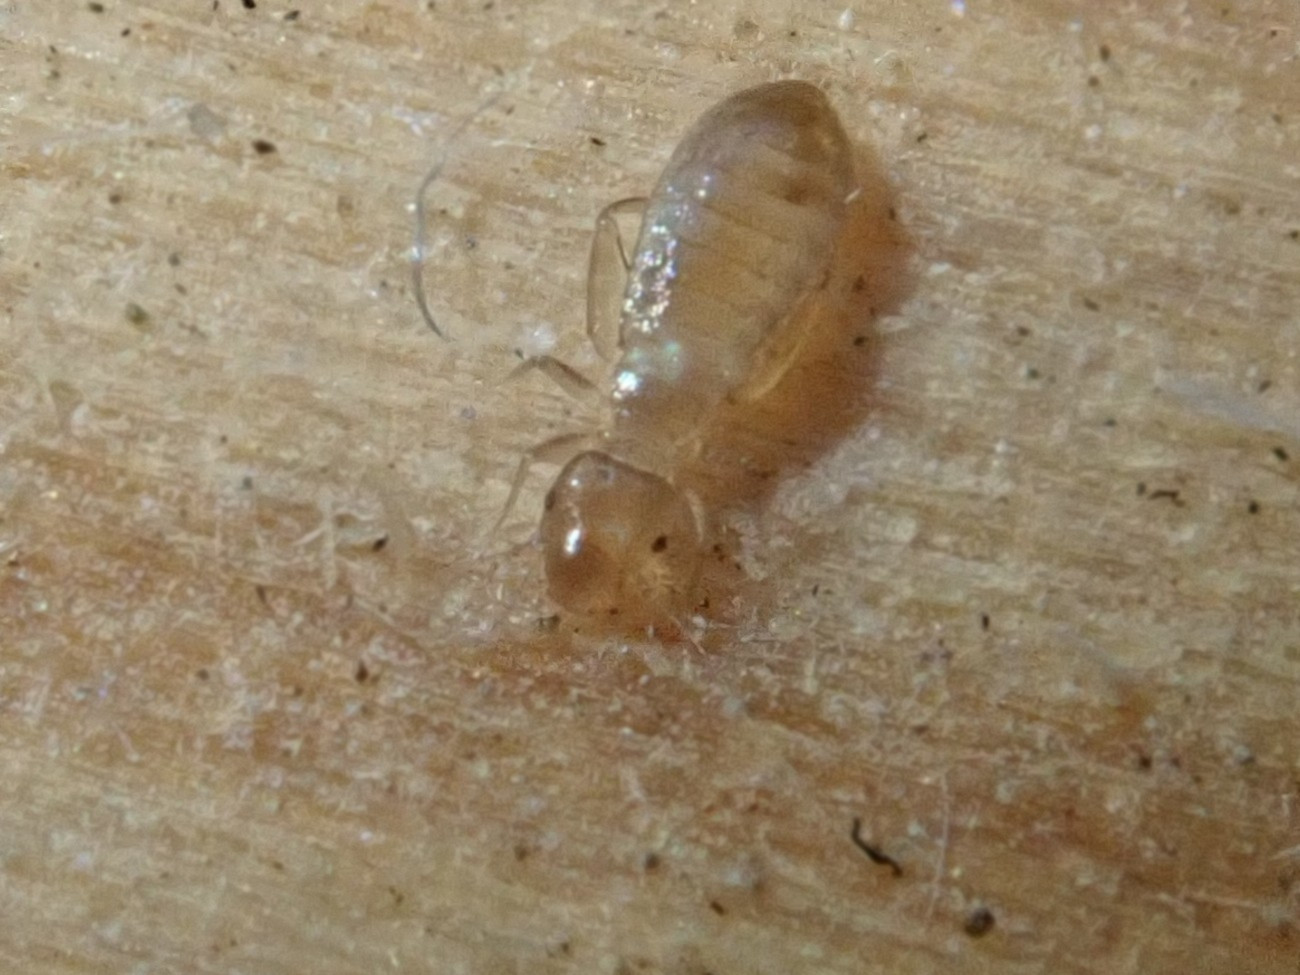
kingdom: Animalia
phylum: Arthropoda
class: Insecta
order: Psocodea
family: Liposcelididae
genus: Liposcelis
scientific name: Liposcelis bostrychophila
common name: Bark lice
